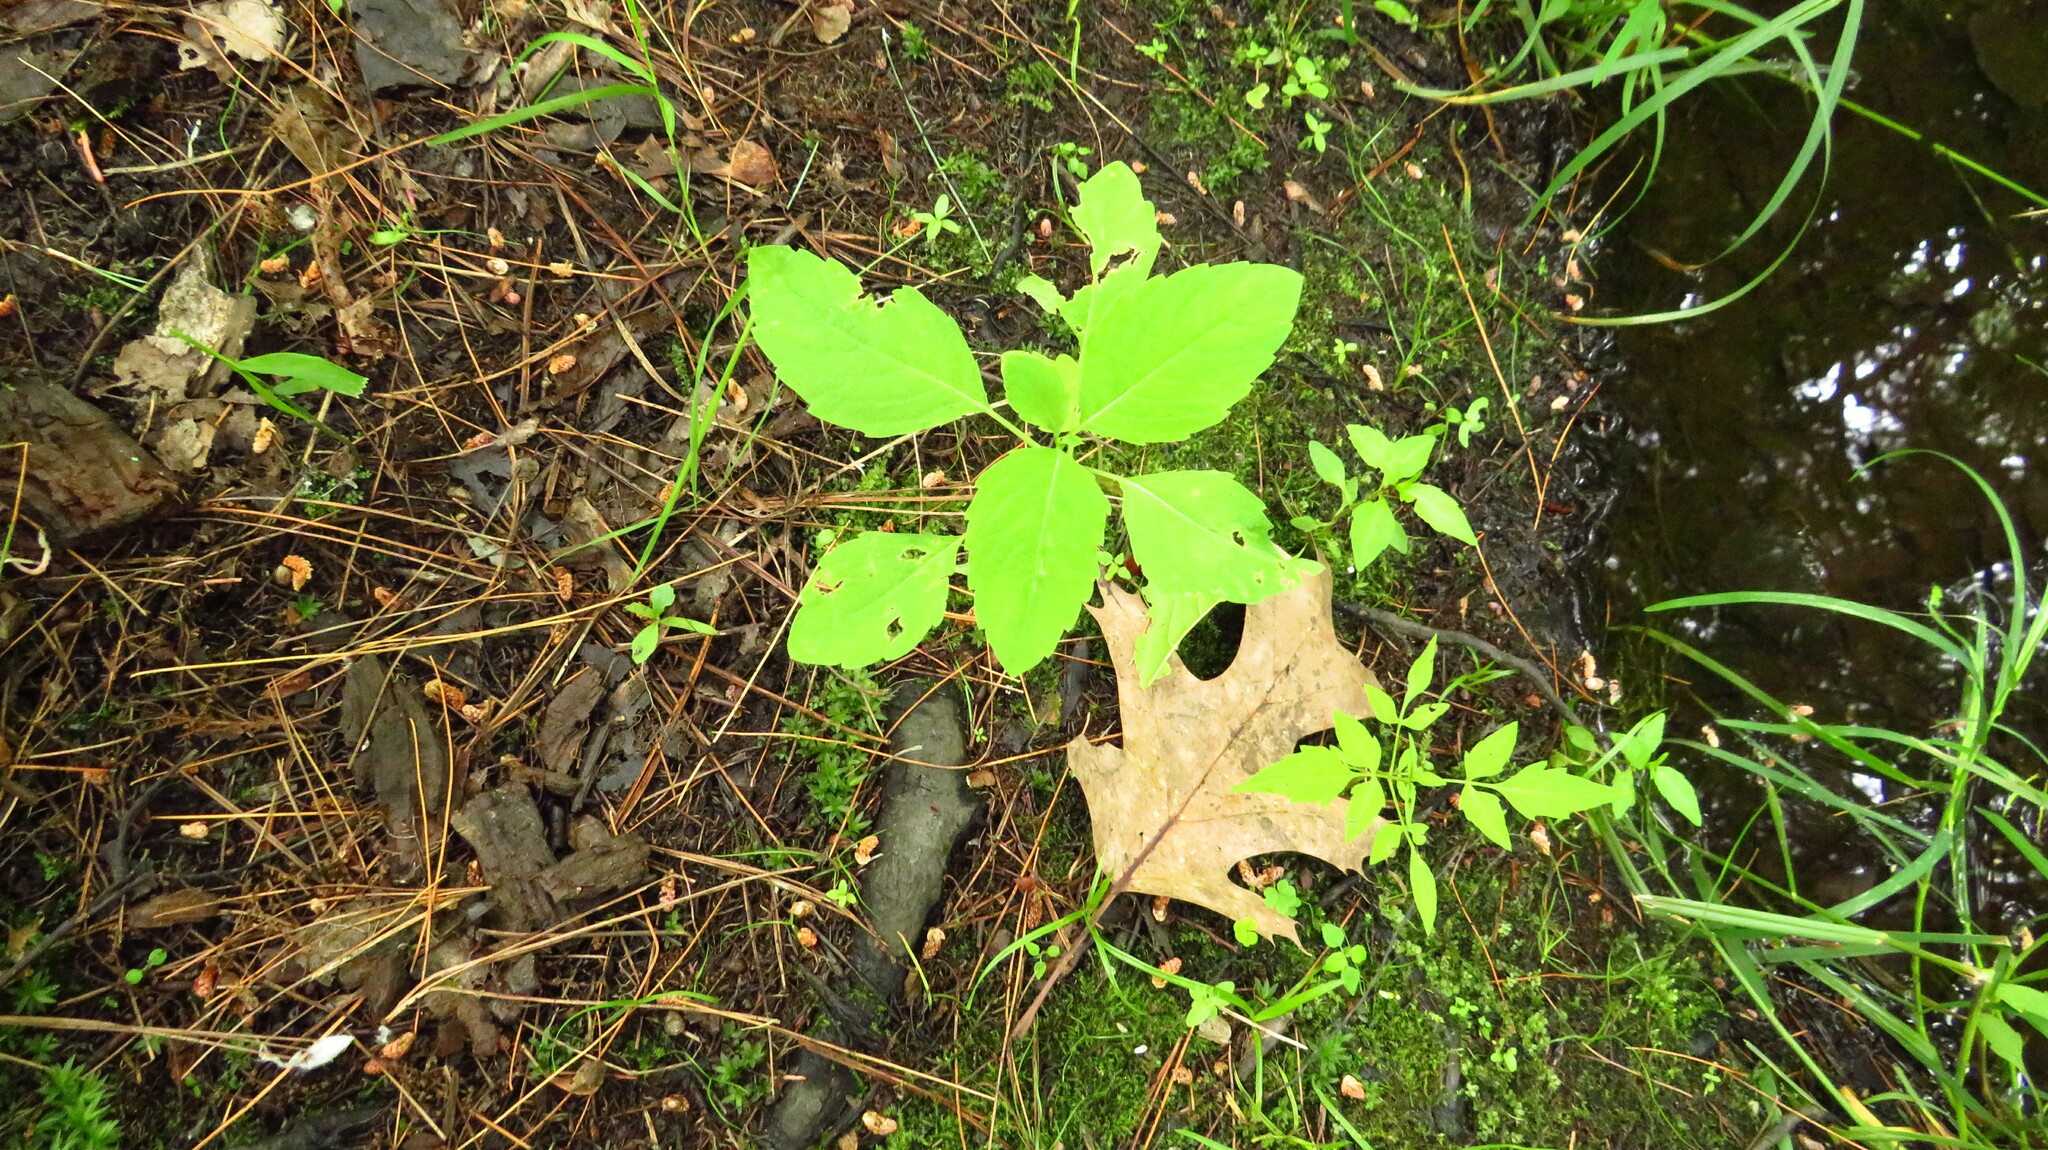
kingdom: Plantae
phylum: Tracheophyta
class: Magnoliopsida
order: Ericales
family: Balsaminaceae
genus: Impatiens
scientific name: Impatiens
